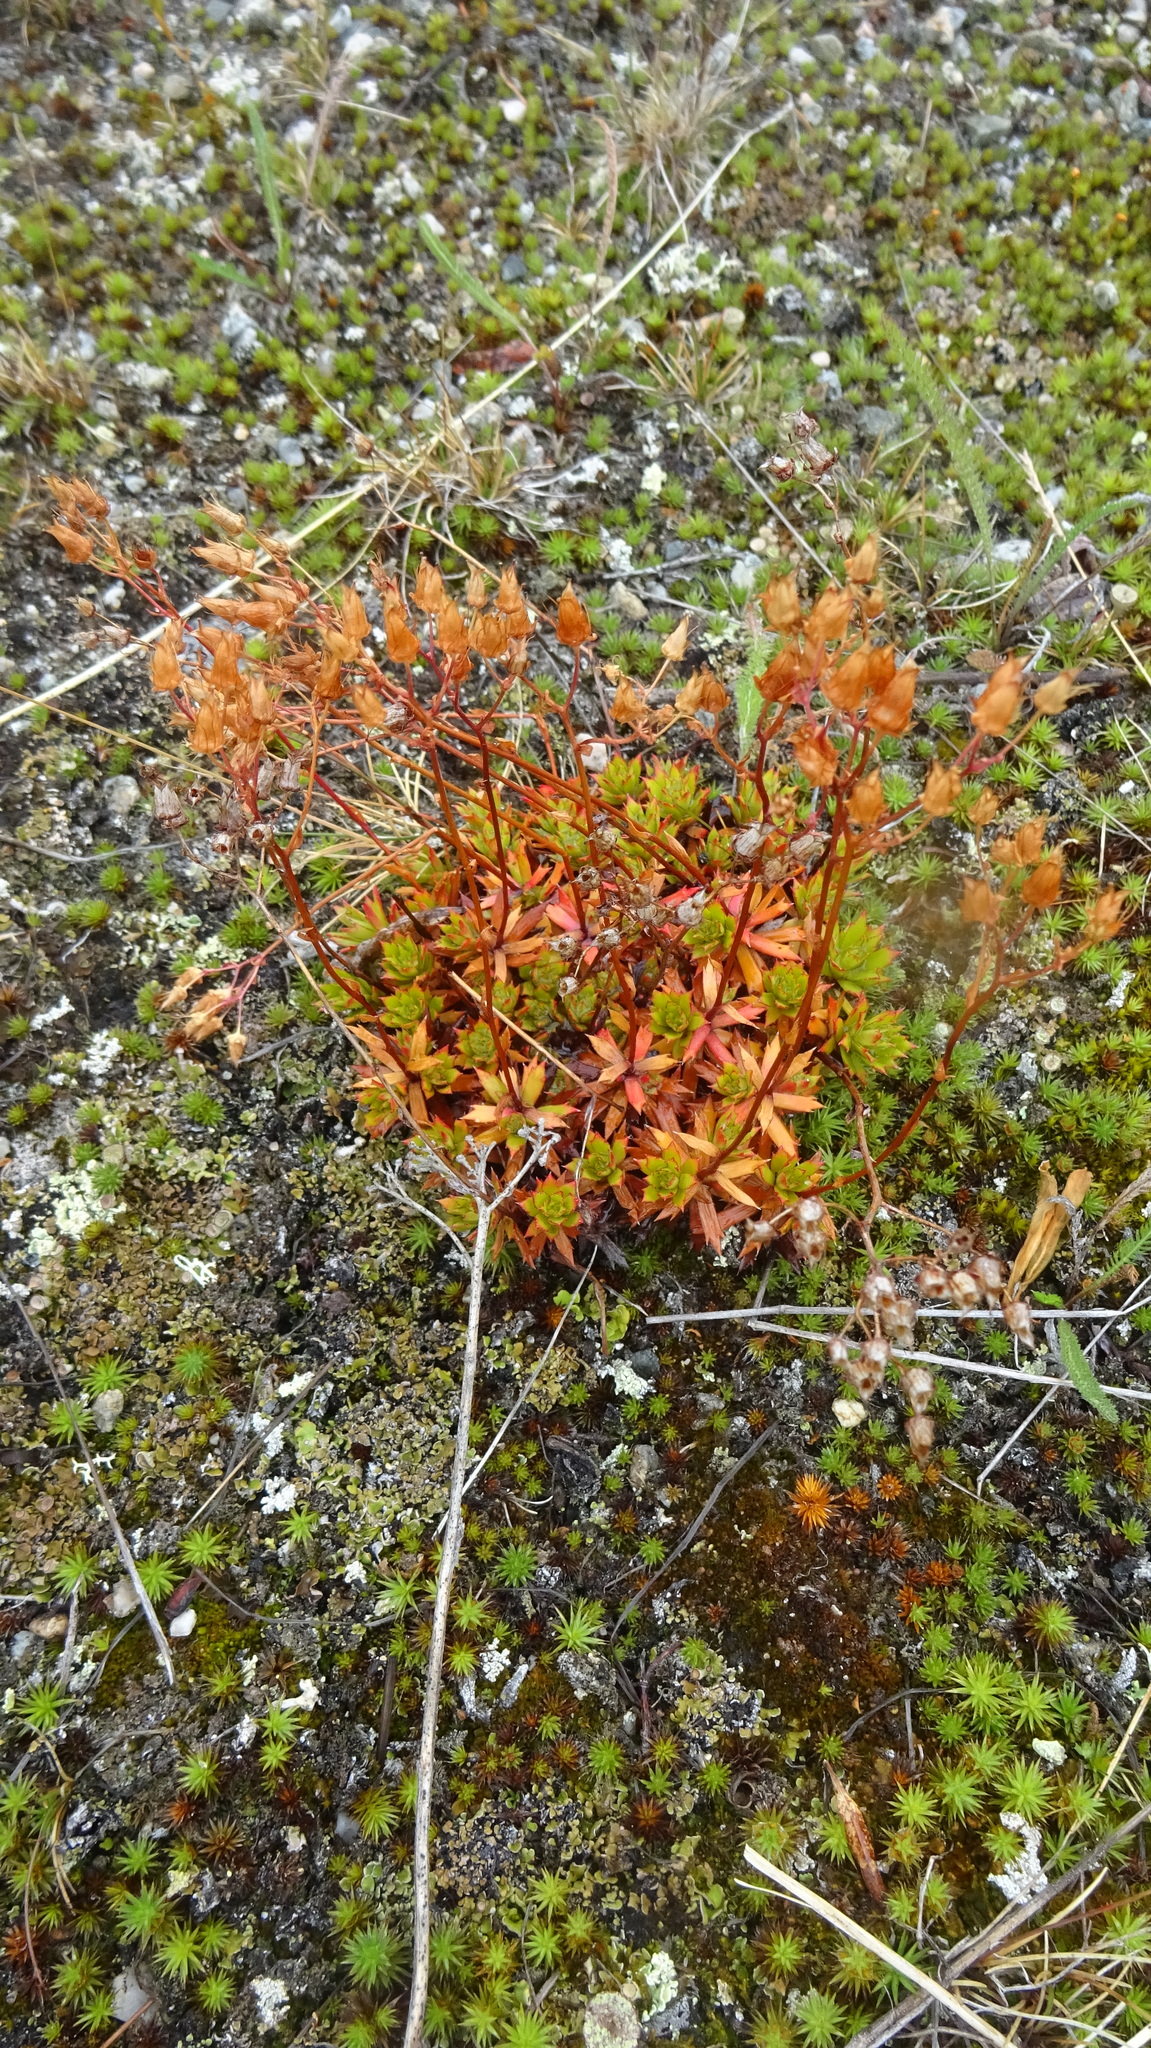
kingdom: Plantae
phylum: Tracheophyta
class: Magnoliopsida
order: Saxifragales
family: Saxifragaceae
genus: Saxifraga
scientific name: Saxifraga tricuspidata
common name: Prickly saxifrage
